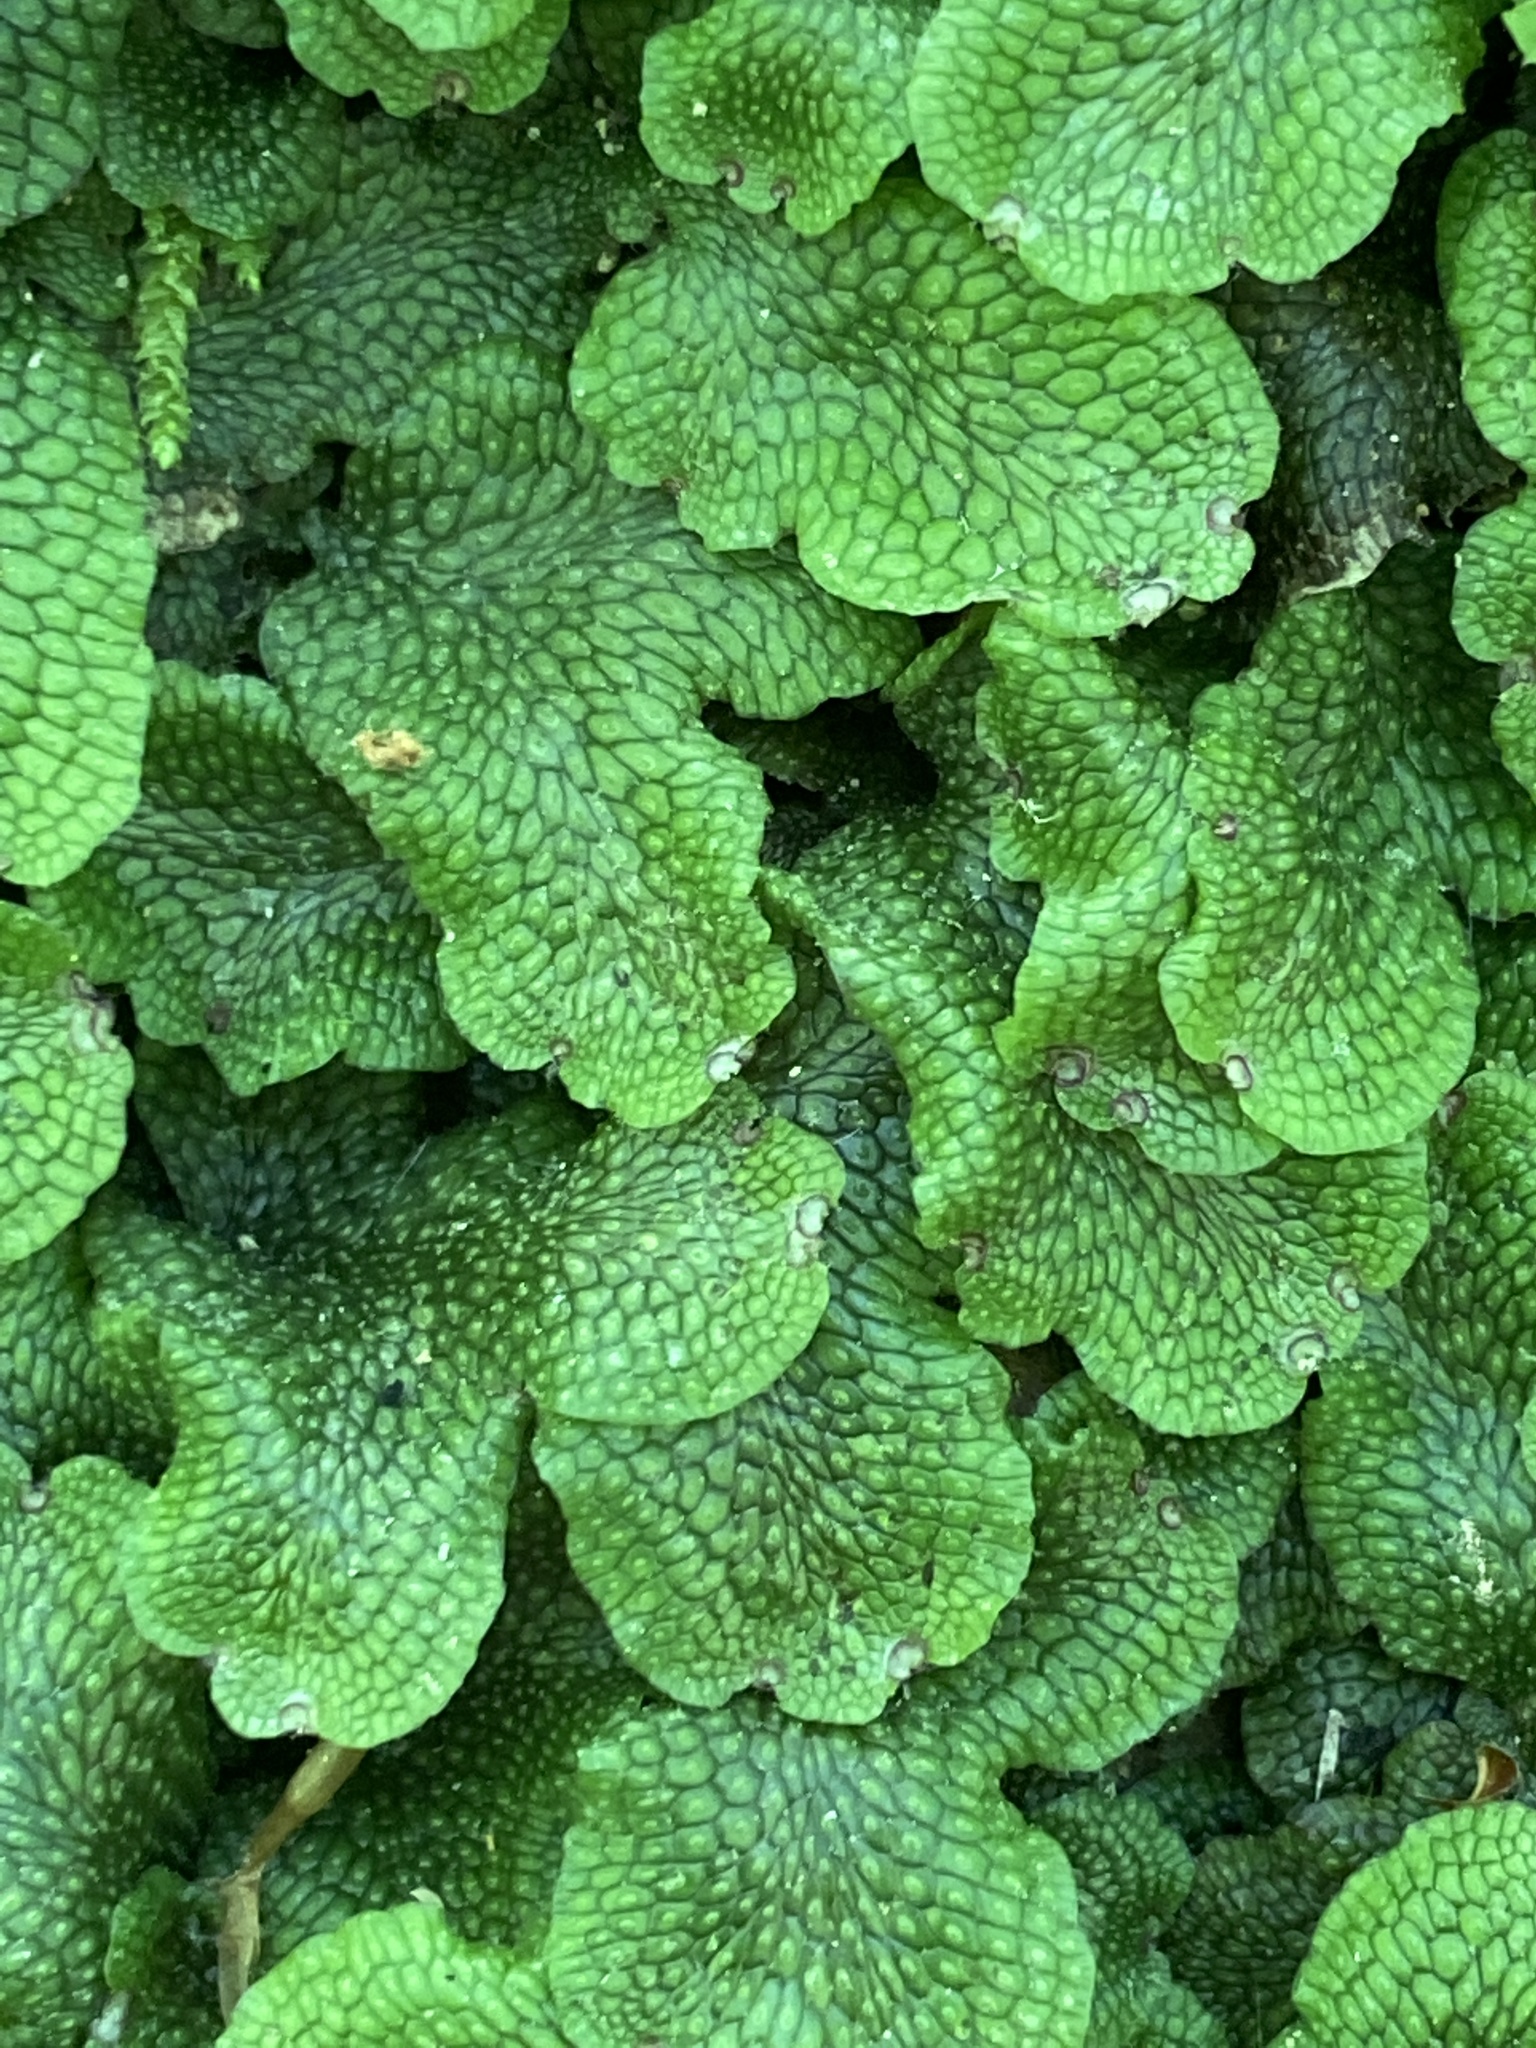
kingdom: Plantae
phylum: Marchantiophyta
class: Marchantiopsida
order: Marchantiales
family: Conocephalaceae
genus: Conocephalum
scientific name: Conocephalum salebrosum
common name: Cat-tongue liverwort
